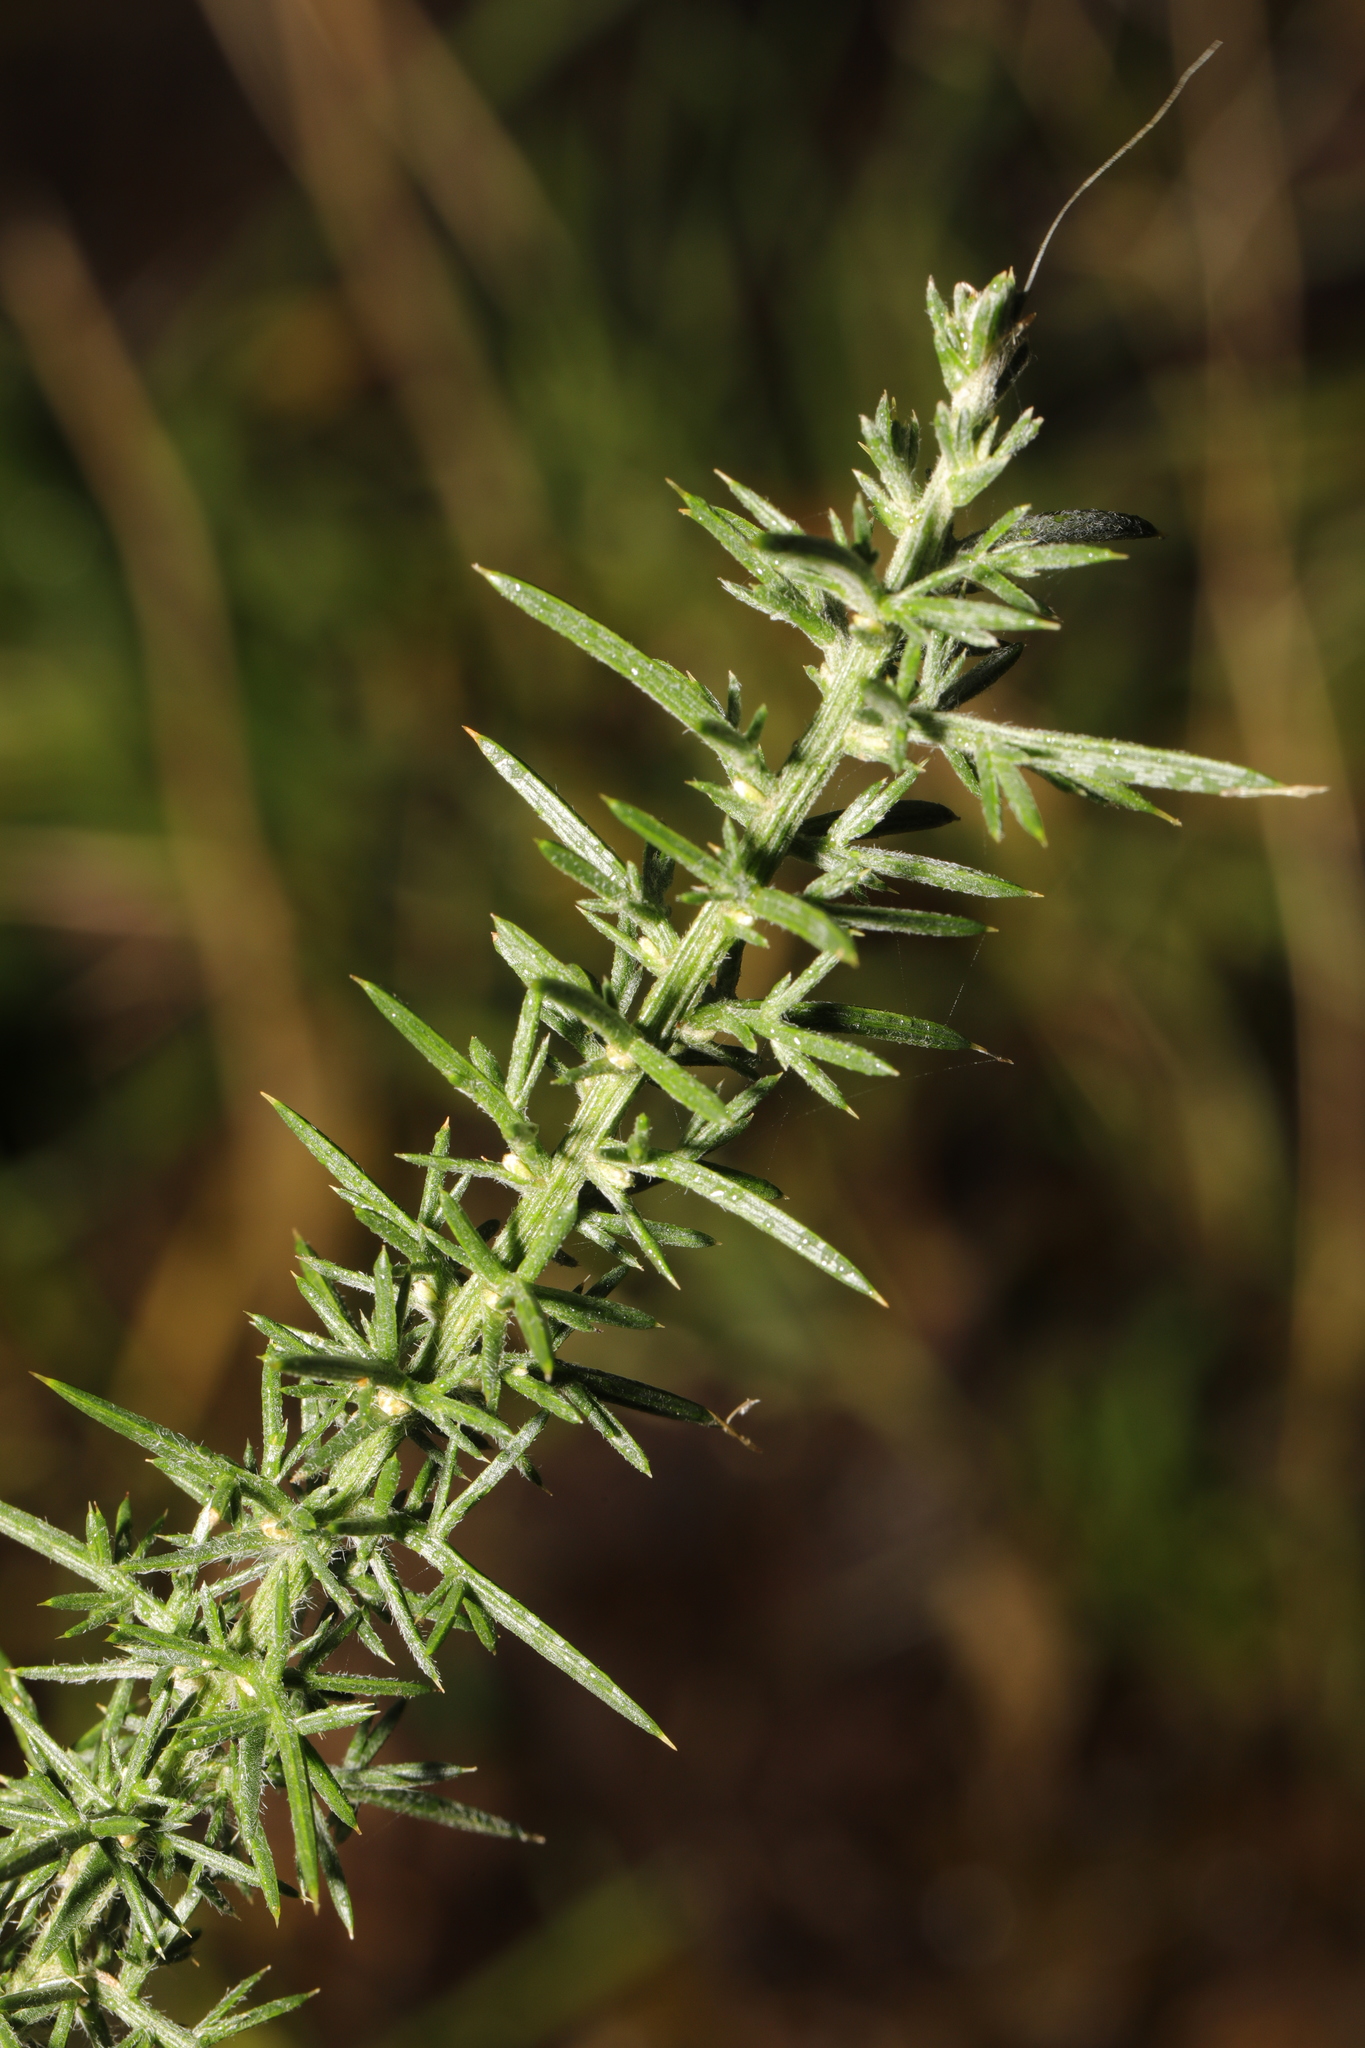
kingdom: Plantae
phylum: Tracheophyta
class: Magnoliopsida
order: Fabales
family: Fabaceae
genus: Ulex
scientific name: Ulex europaeus
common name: Common gorse
